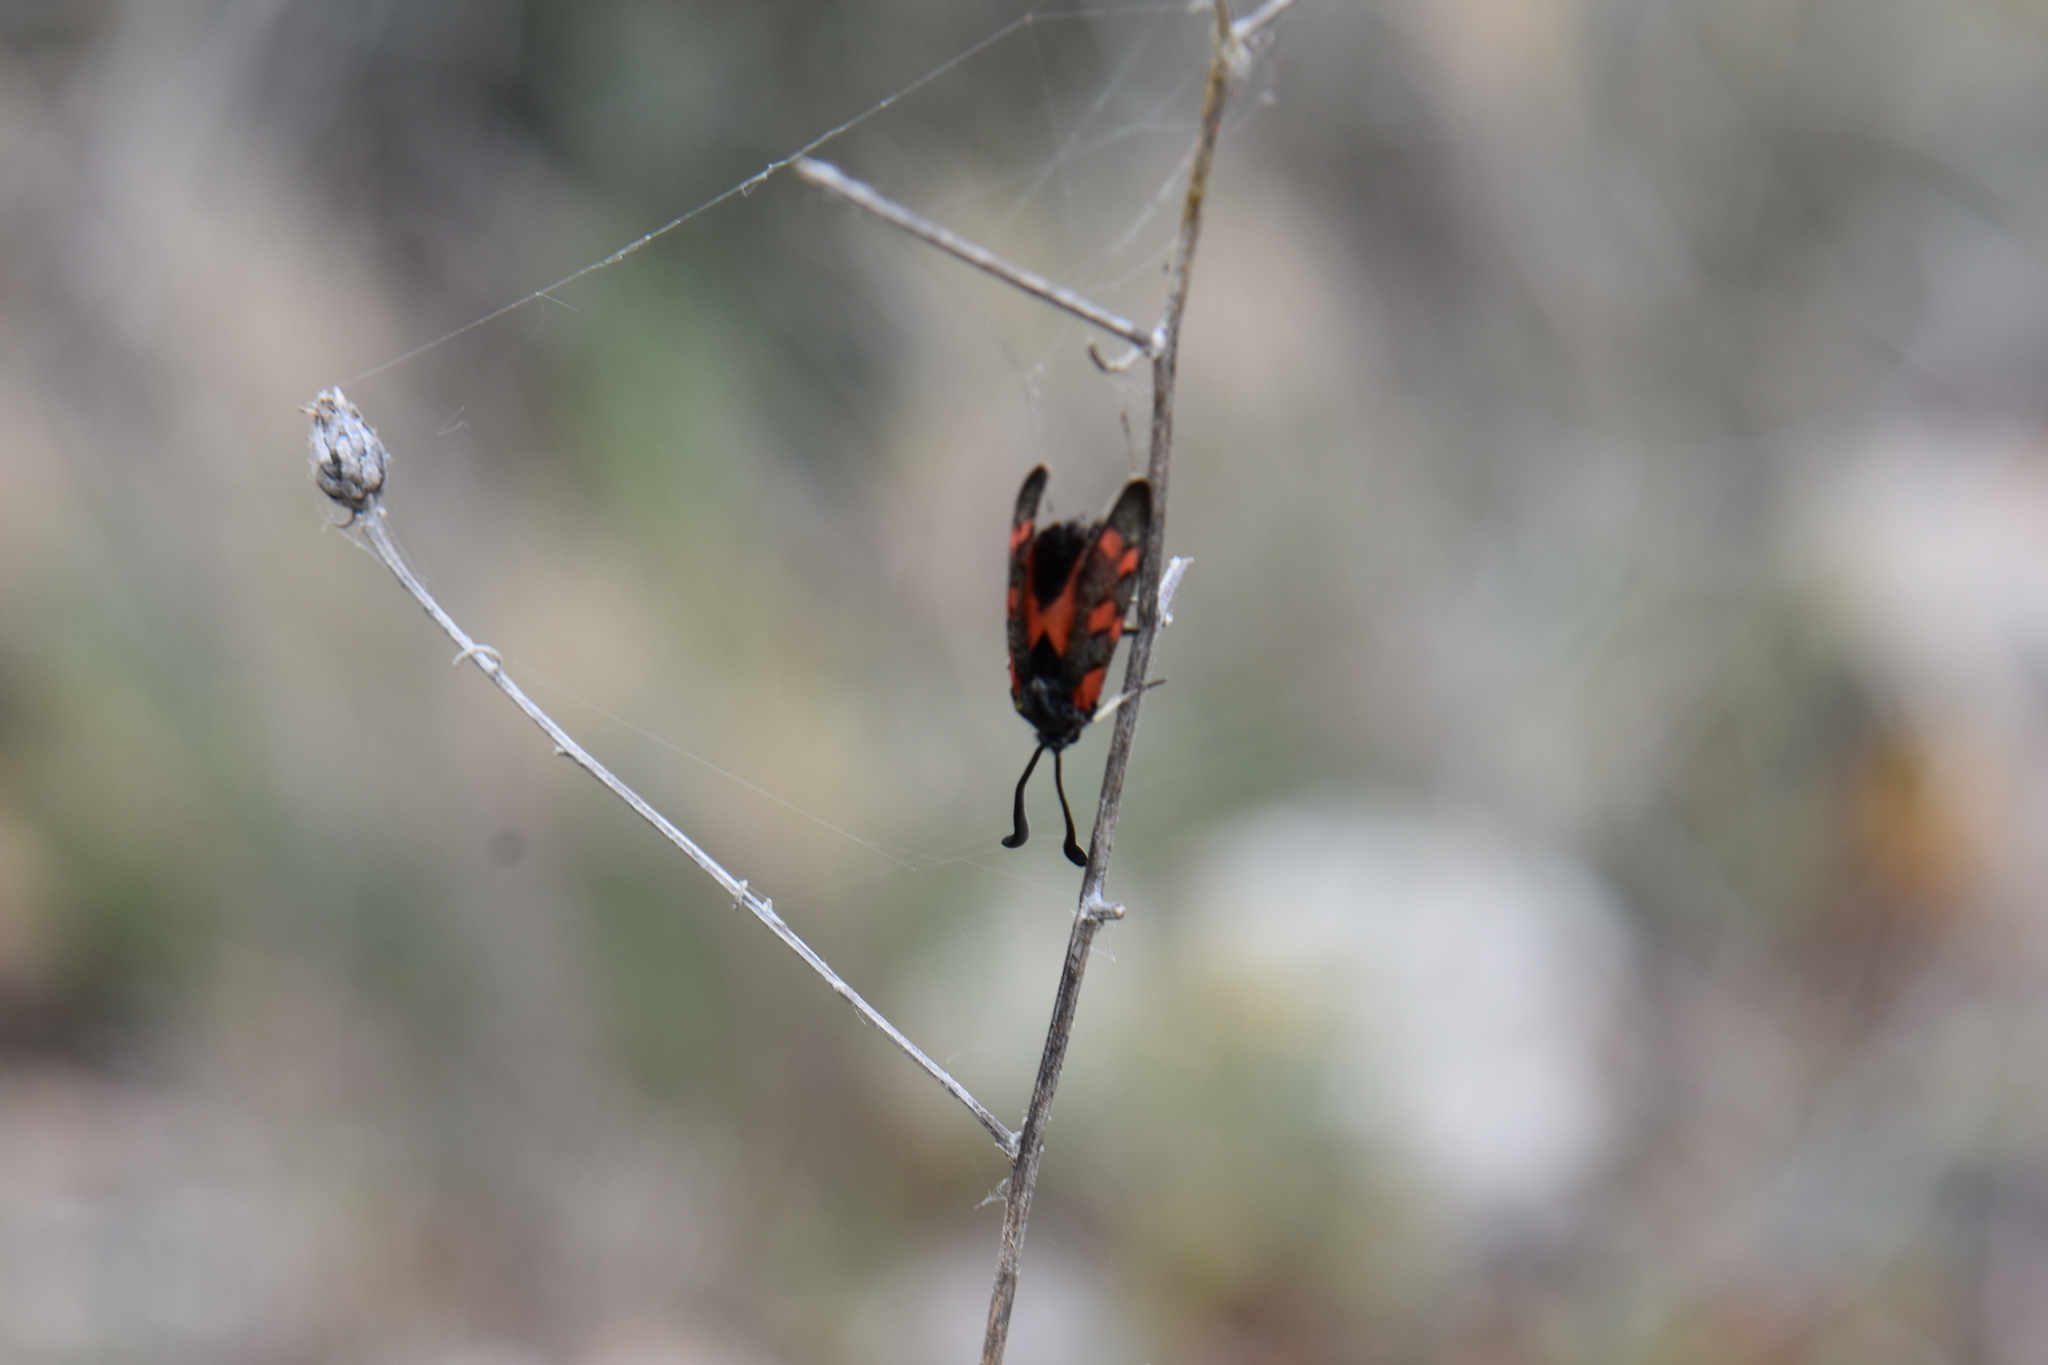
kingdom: Animalia
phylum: Arthropoda
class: Insecta
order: Lepidoptera
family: Zygaenidae
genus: Zygaena
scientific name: Zygaena rhadamanthus
